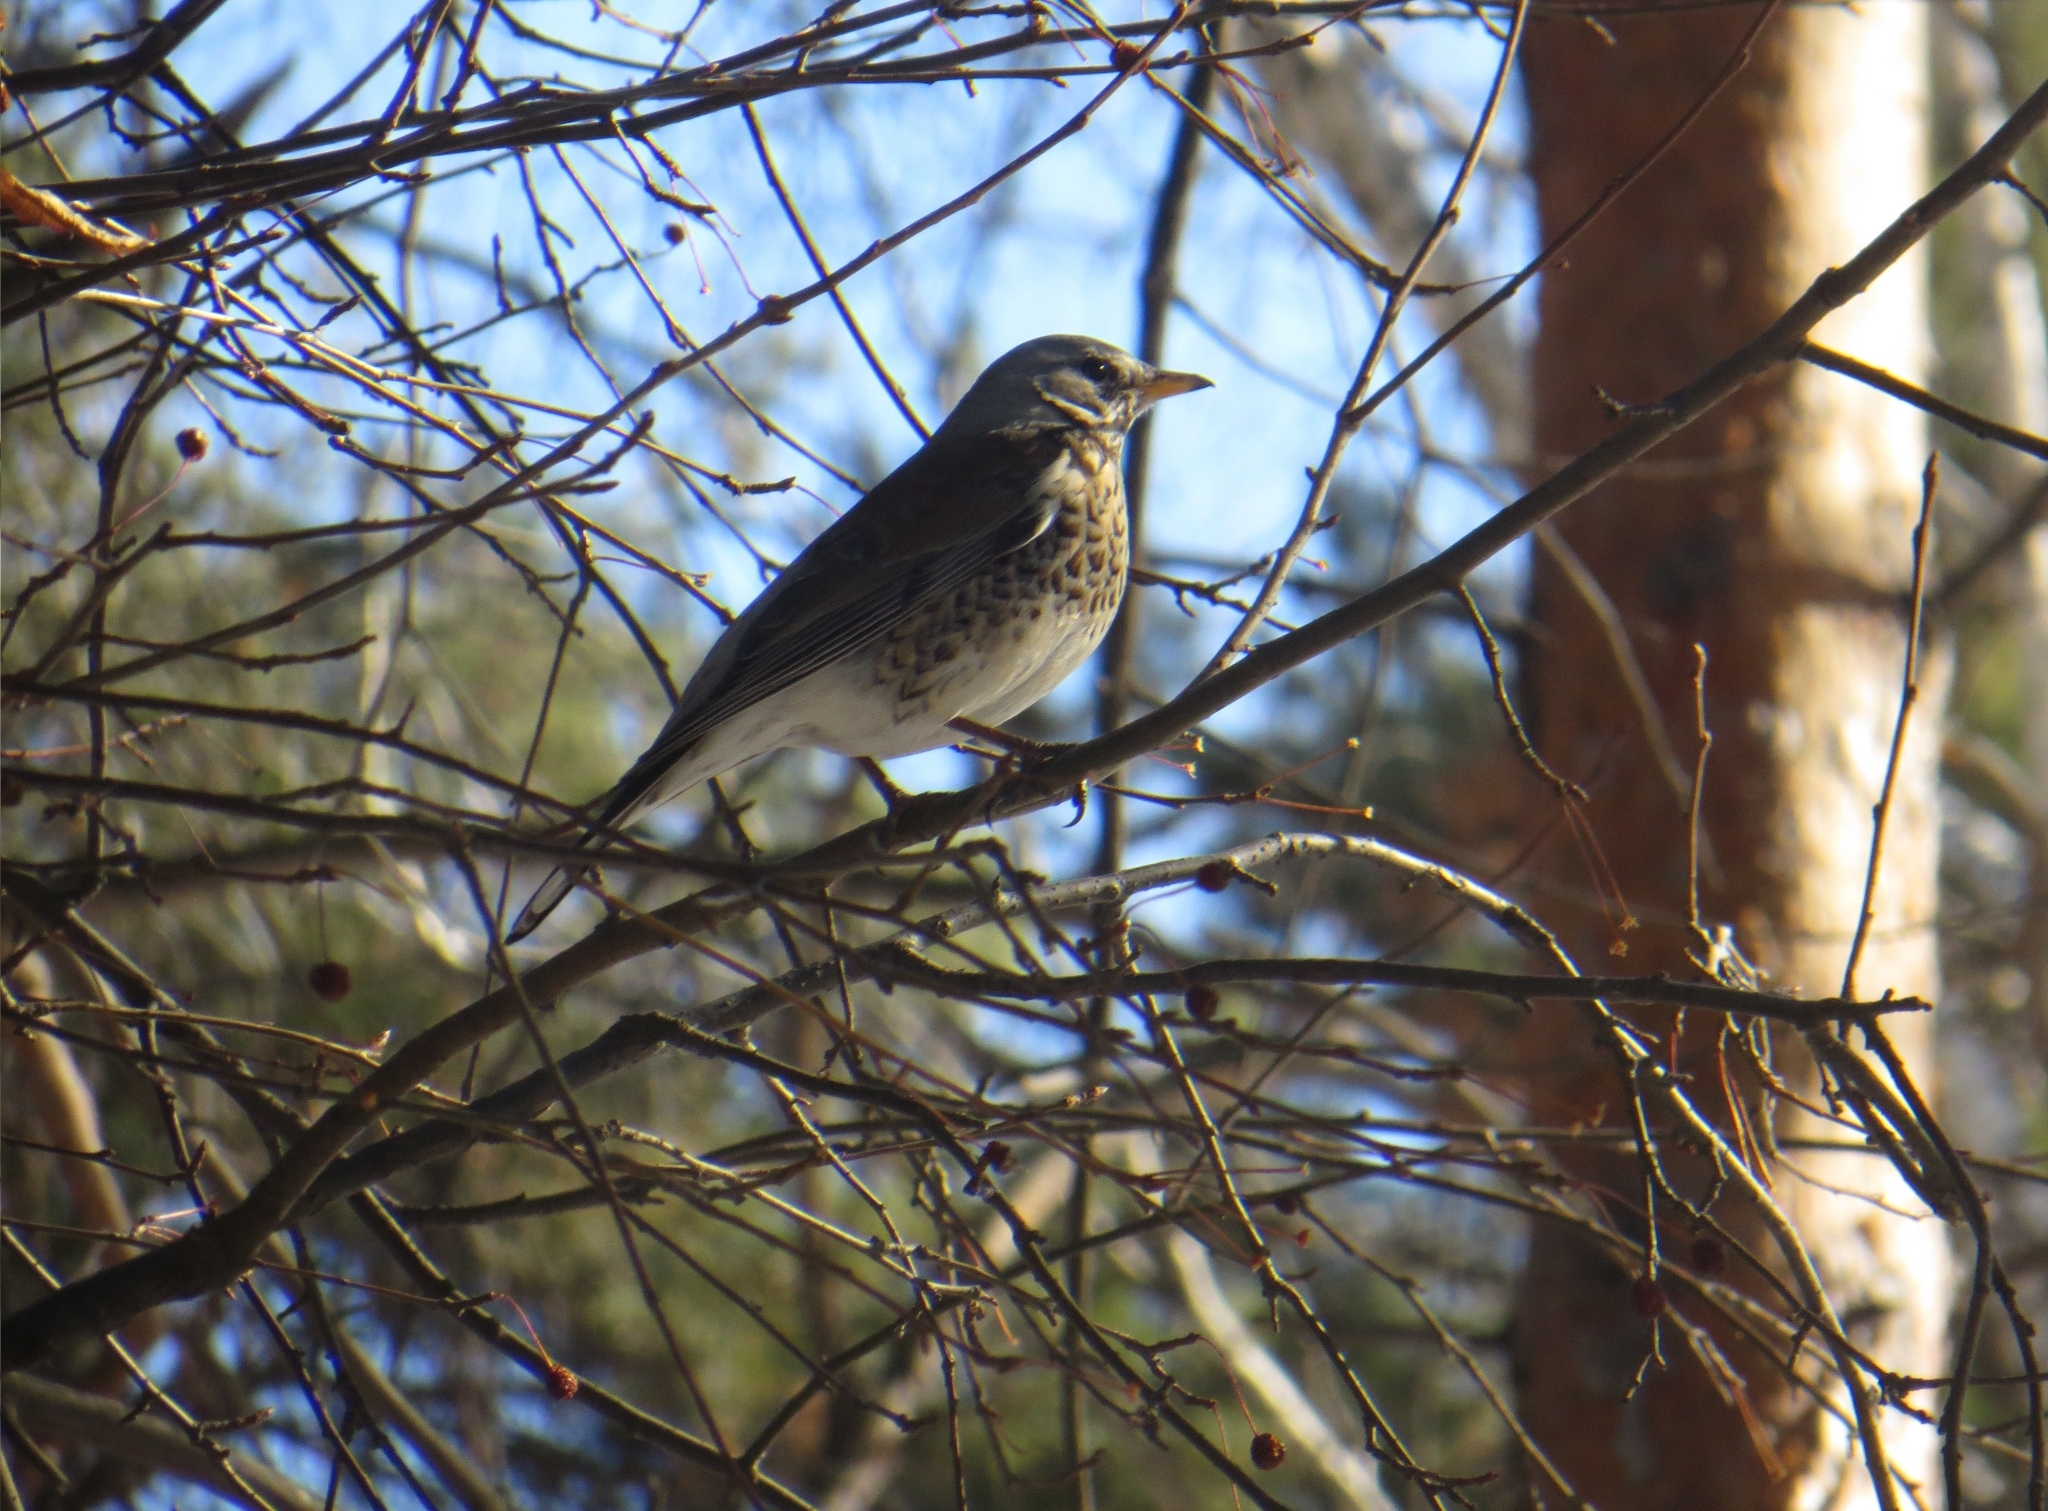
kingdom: Animalia
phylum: Chordata
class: Aves
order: Passeriformes
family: Turdidae
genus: Turdus
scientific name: Turdus pilaris
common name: Fieldfare
